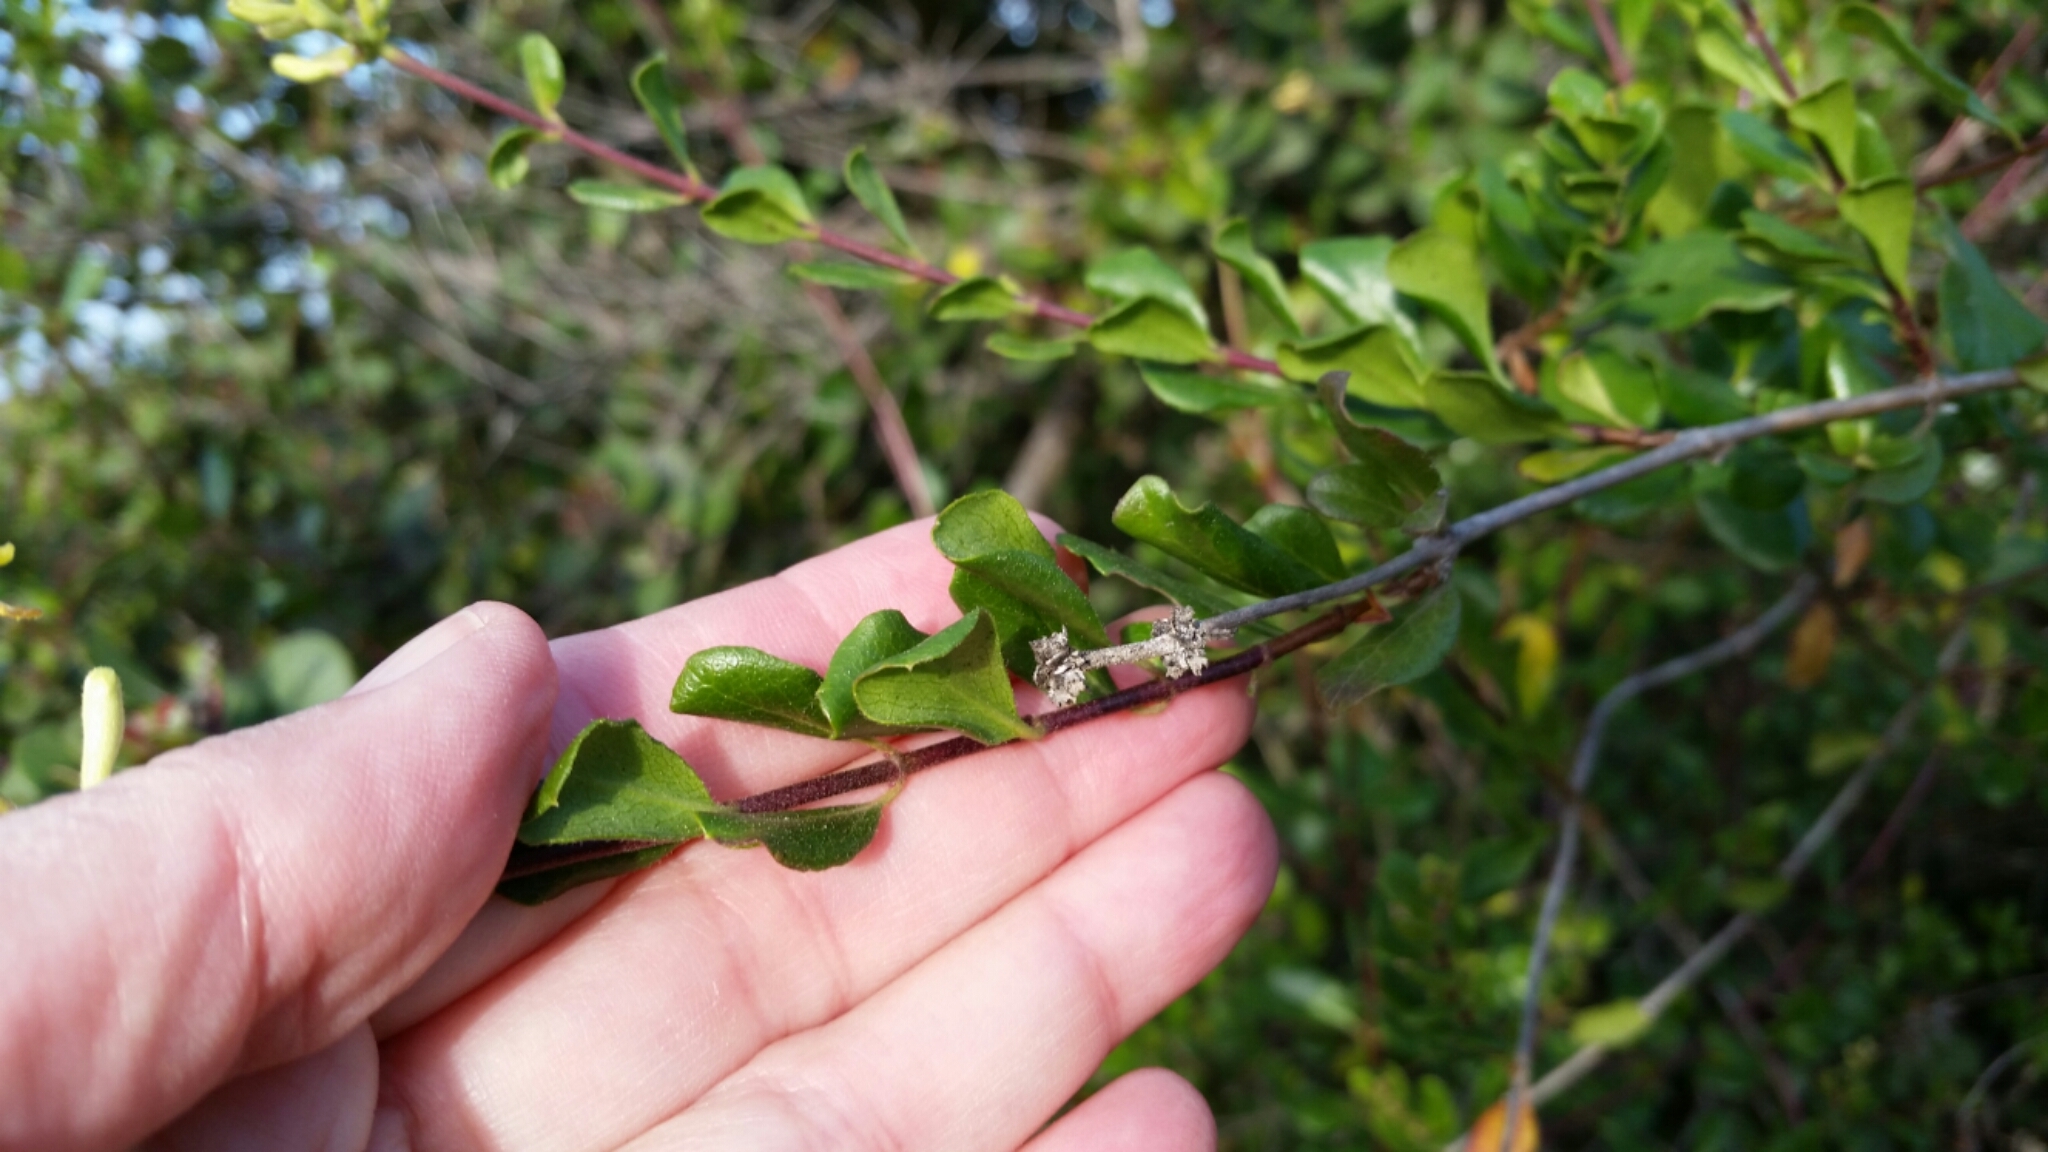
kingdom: Plantae
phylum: Tracheophyta
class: Magnoliopsida
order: Dipsacales
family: Caprifoliaceae
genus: Lonicera
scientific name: Lonicera subspicata
